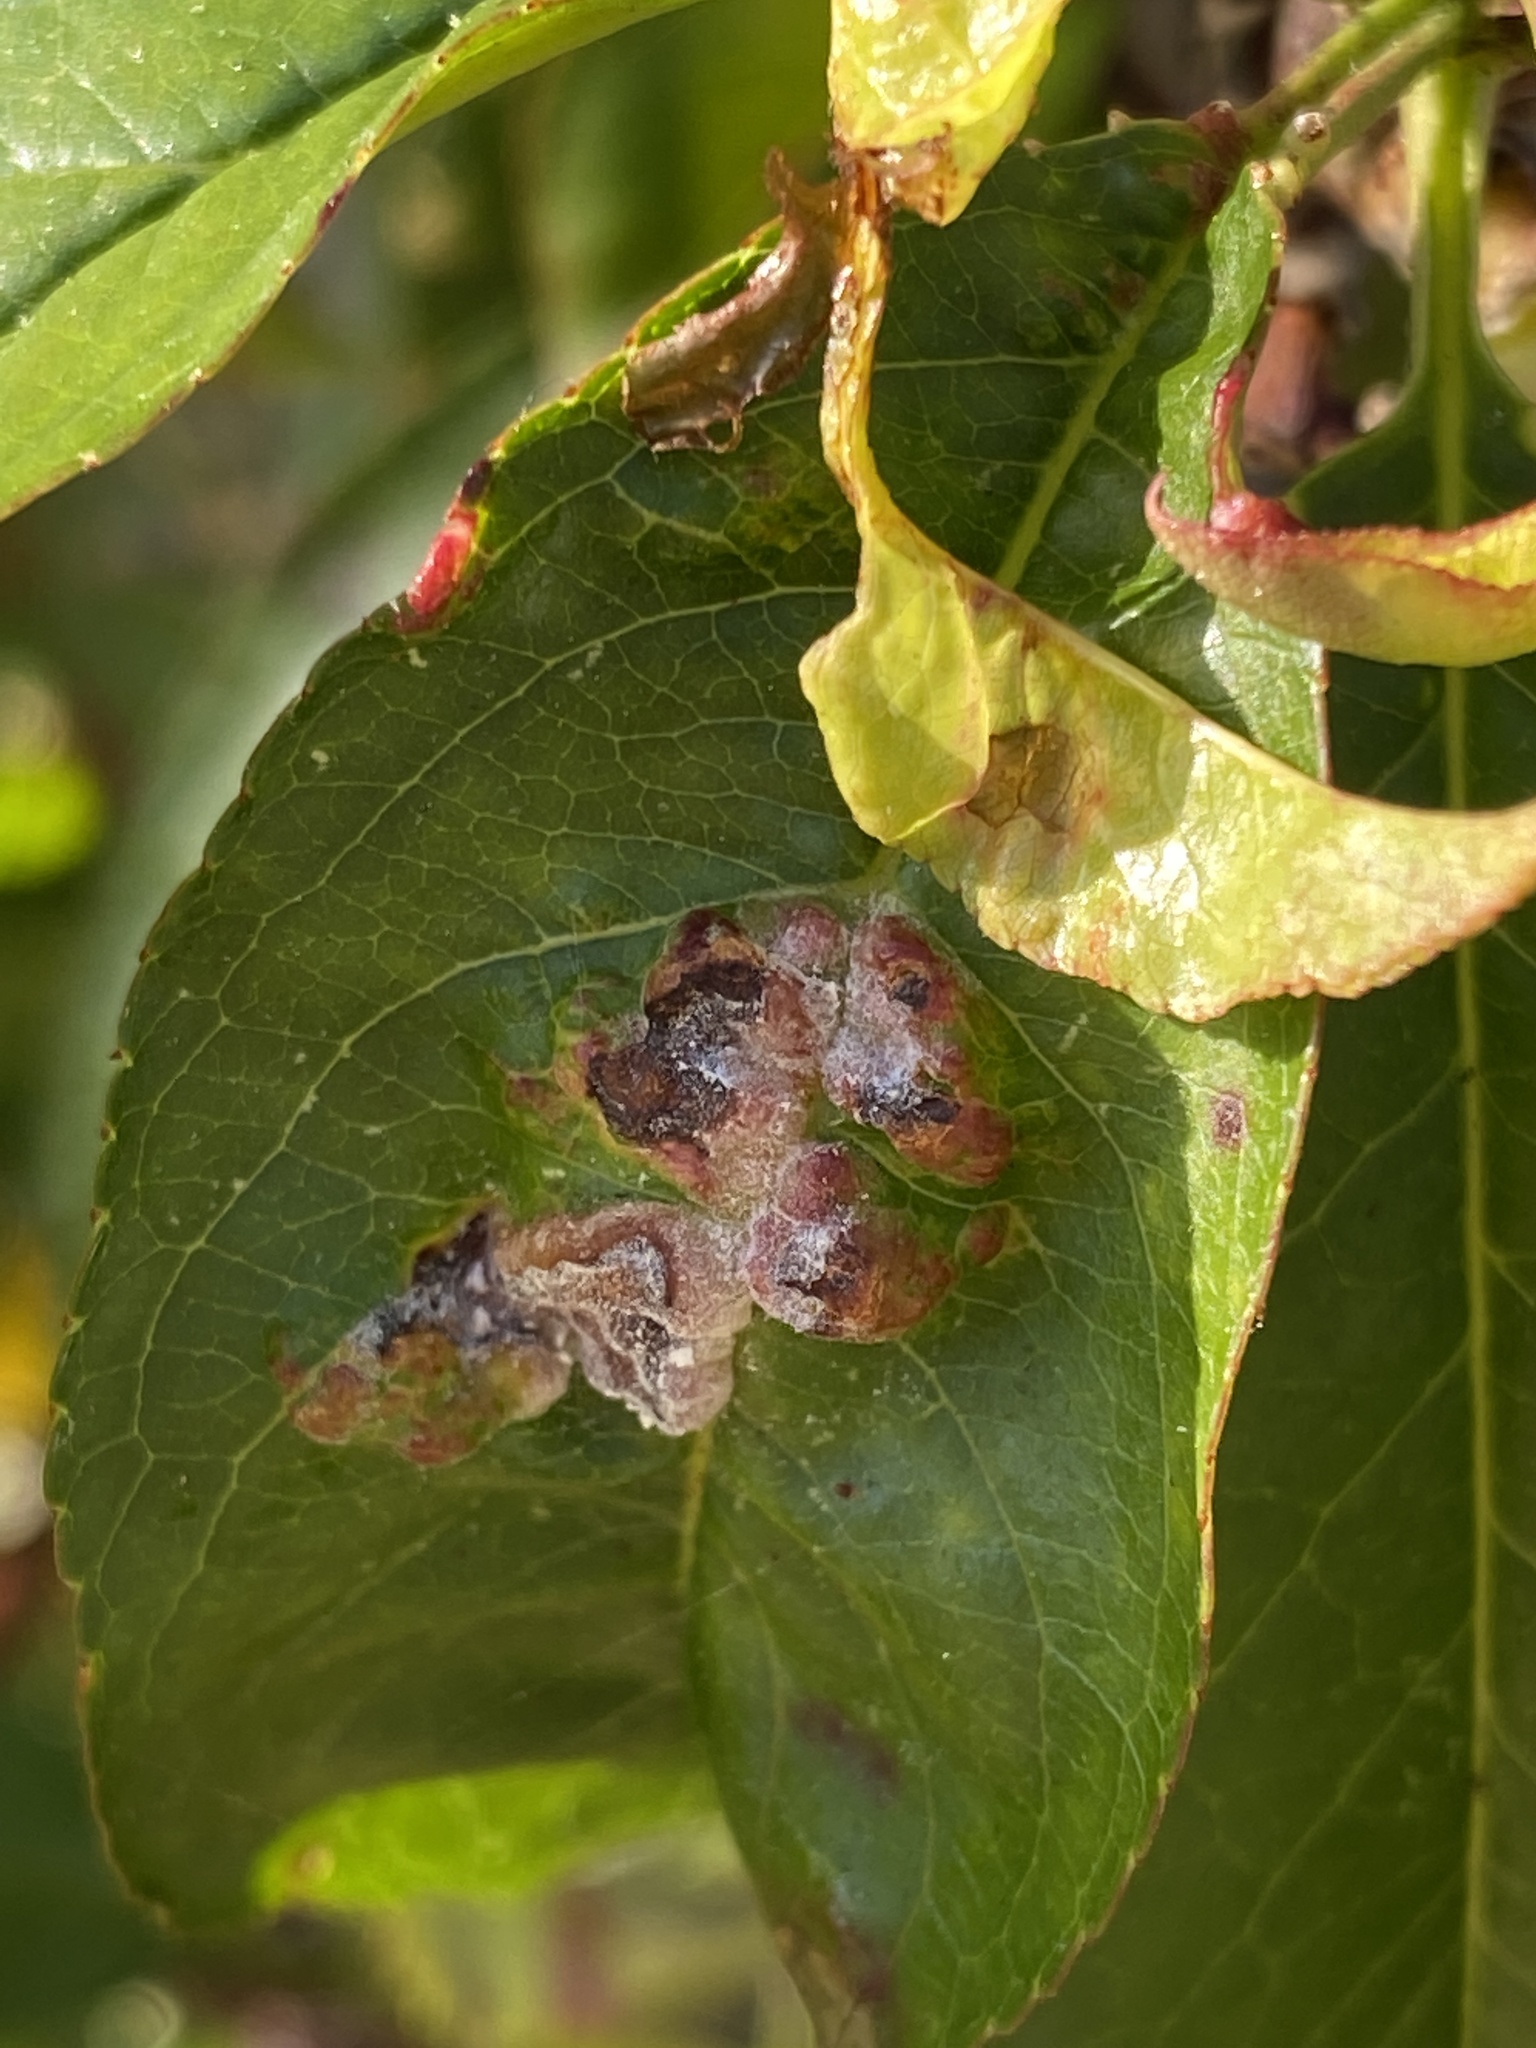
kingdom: Fungi
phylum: Ascomycota
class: Taphrinomycetes
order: Taphrinales
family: Taphrinaceae
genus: Taphrina
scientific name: Taphrina deformans
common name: Peach leaf curl
